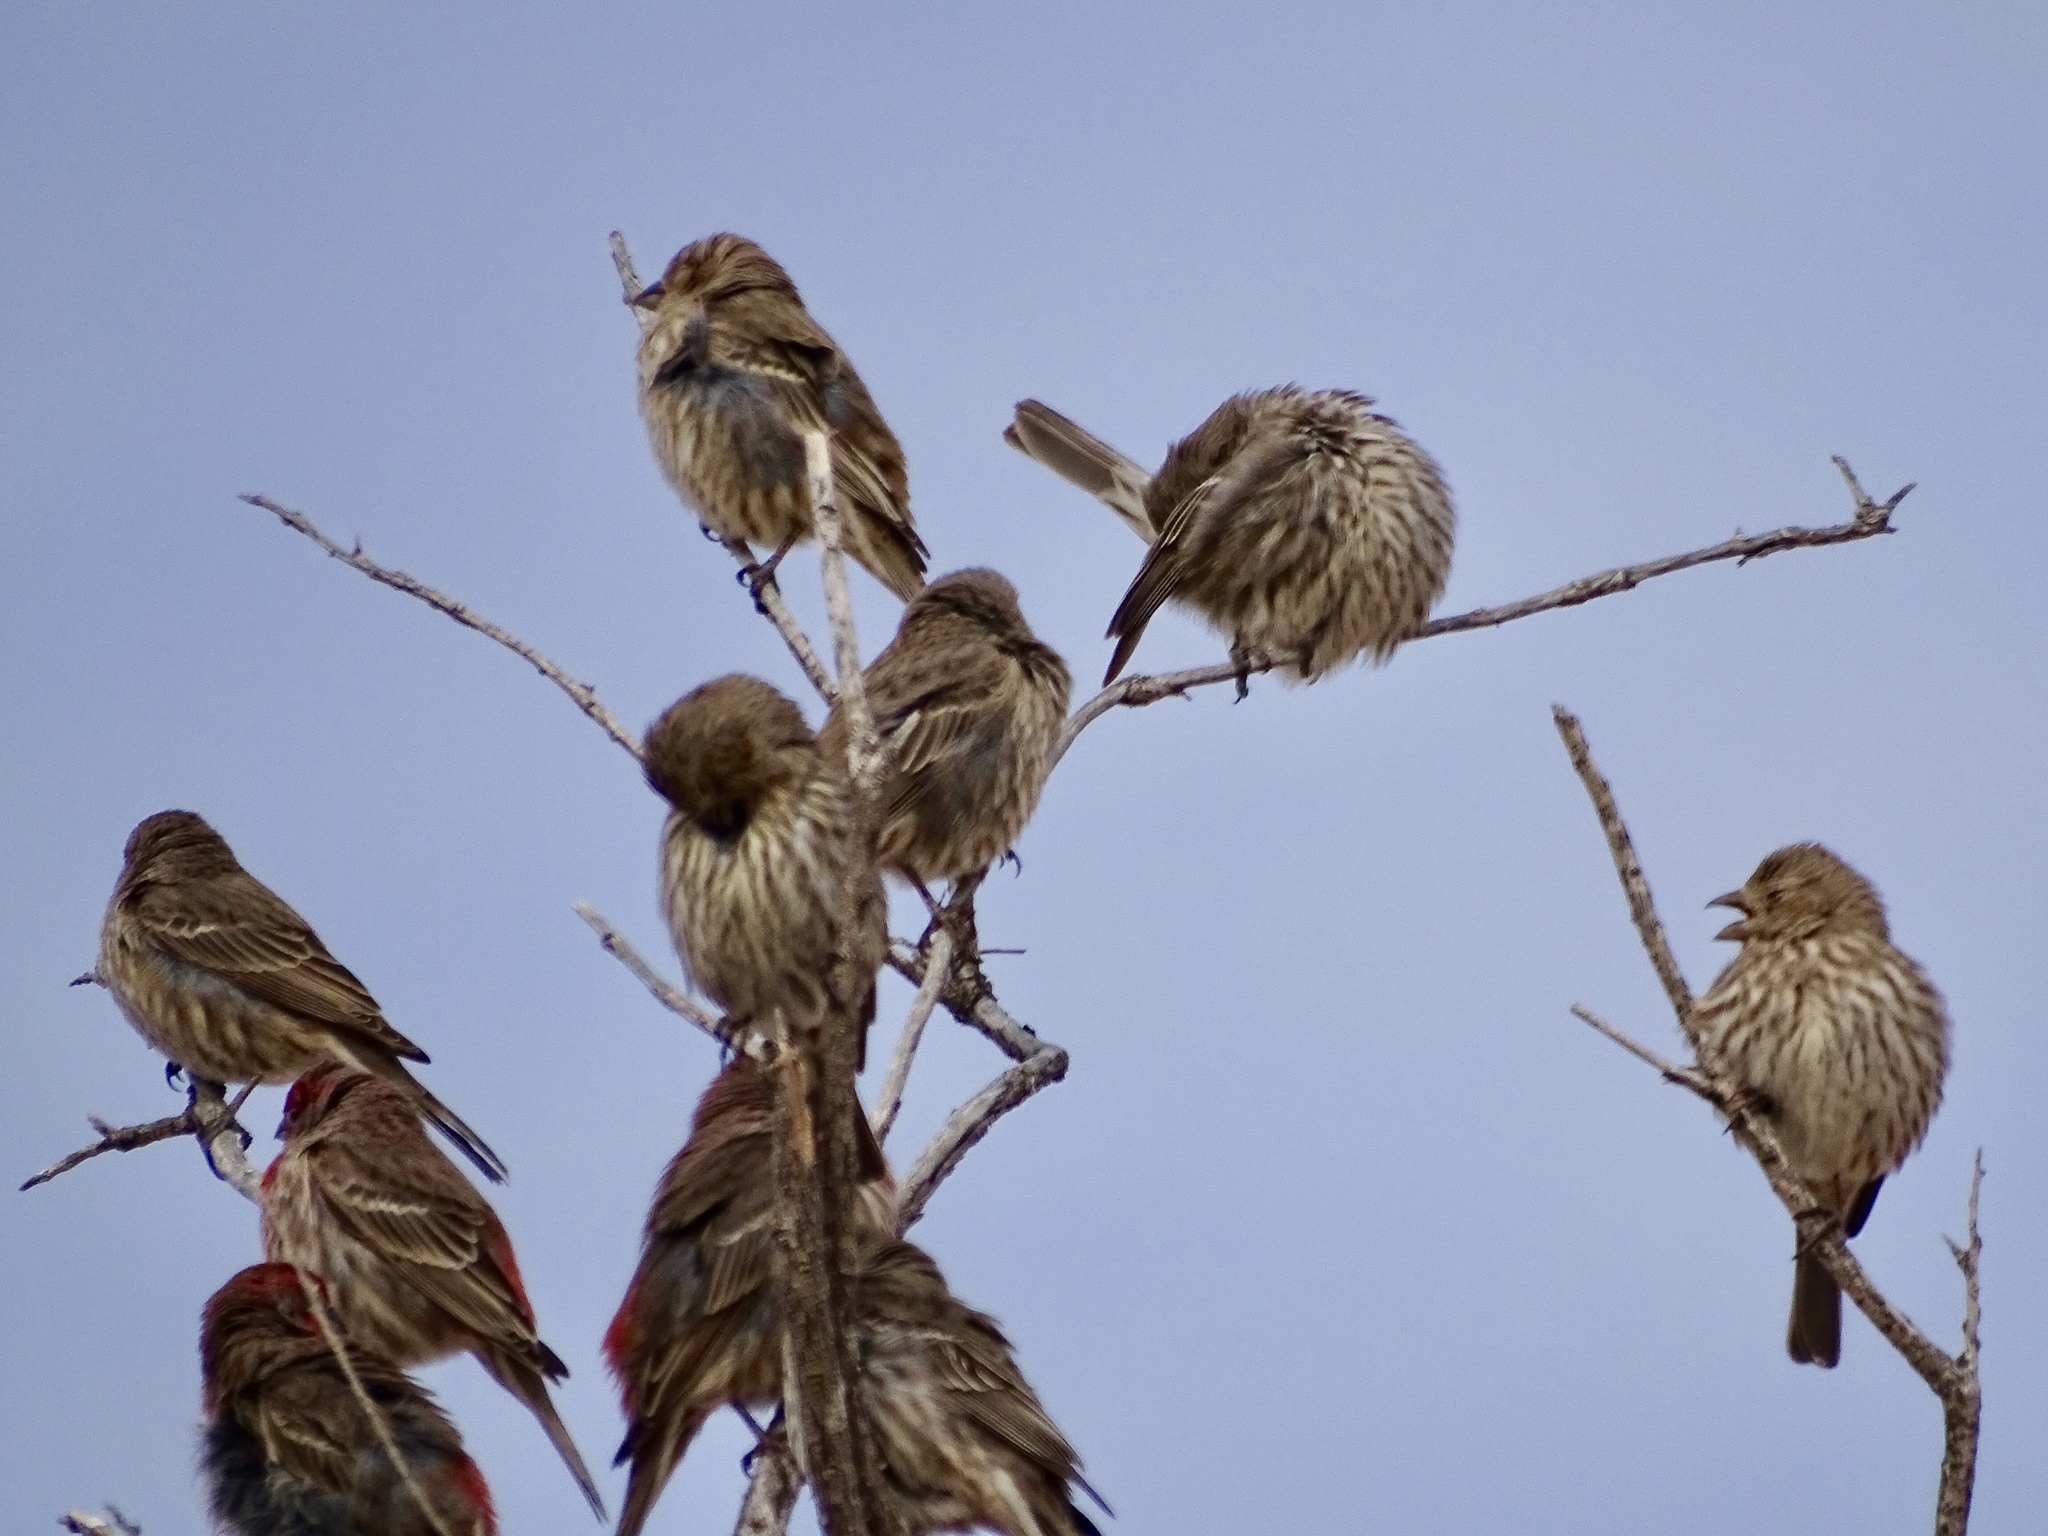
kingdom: Animalia
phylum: Chordata
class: Aves
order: Passeriformes
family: Fringillidae
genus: Haemorhous
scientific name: Haemorhous mexicanus
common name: House finch
